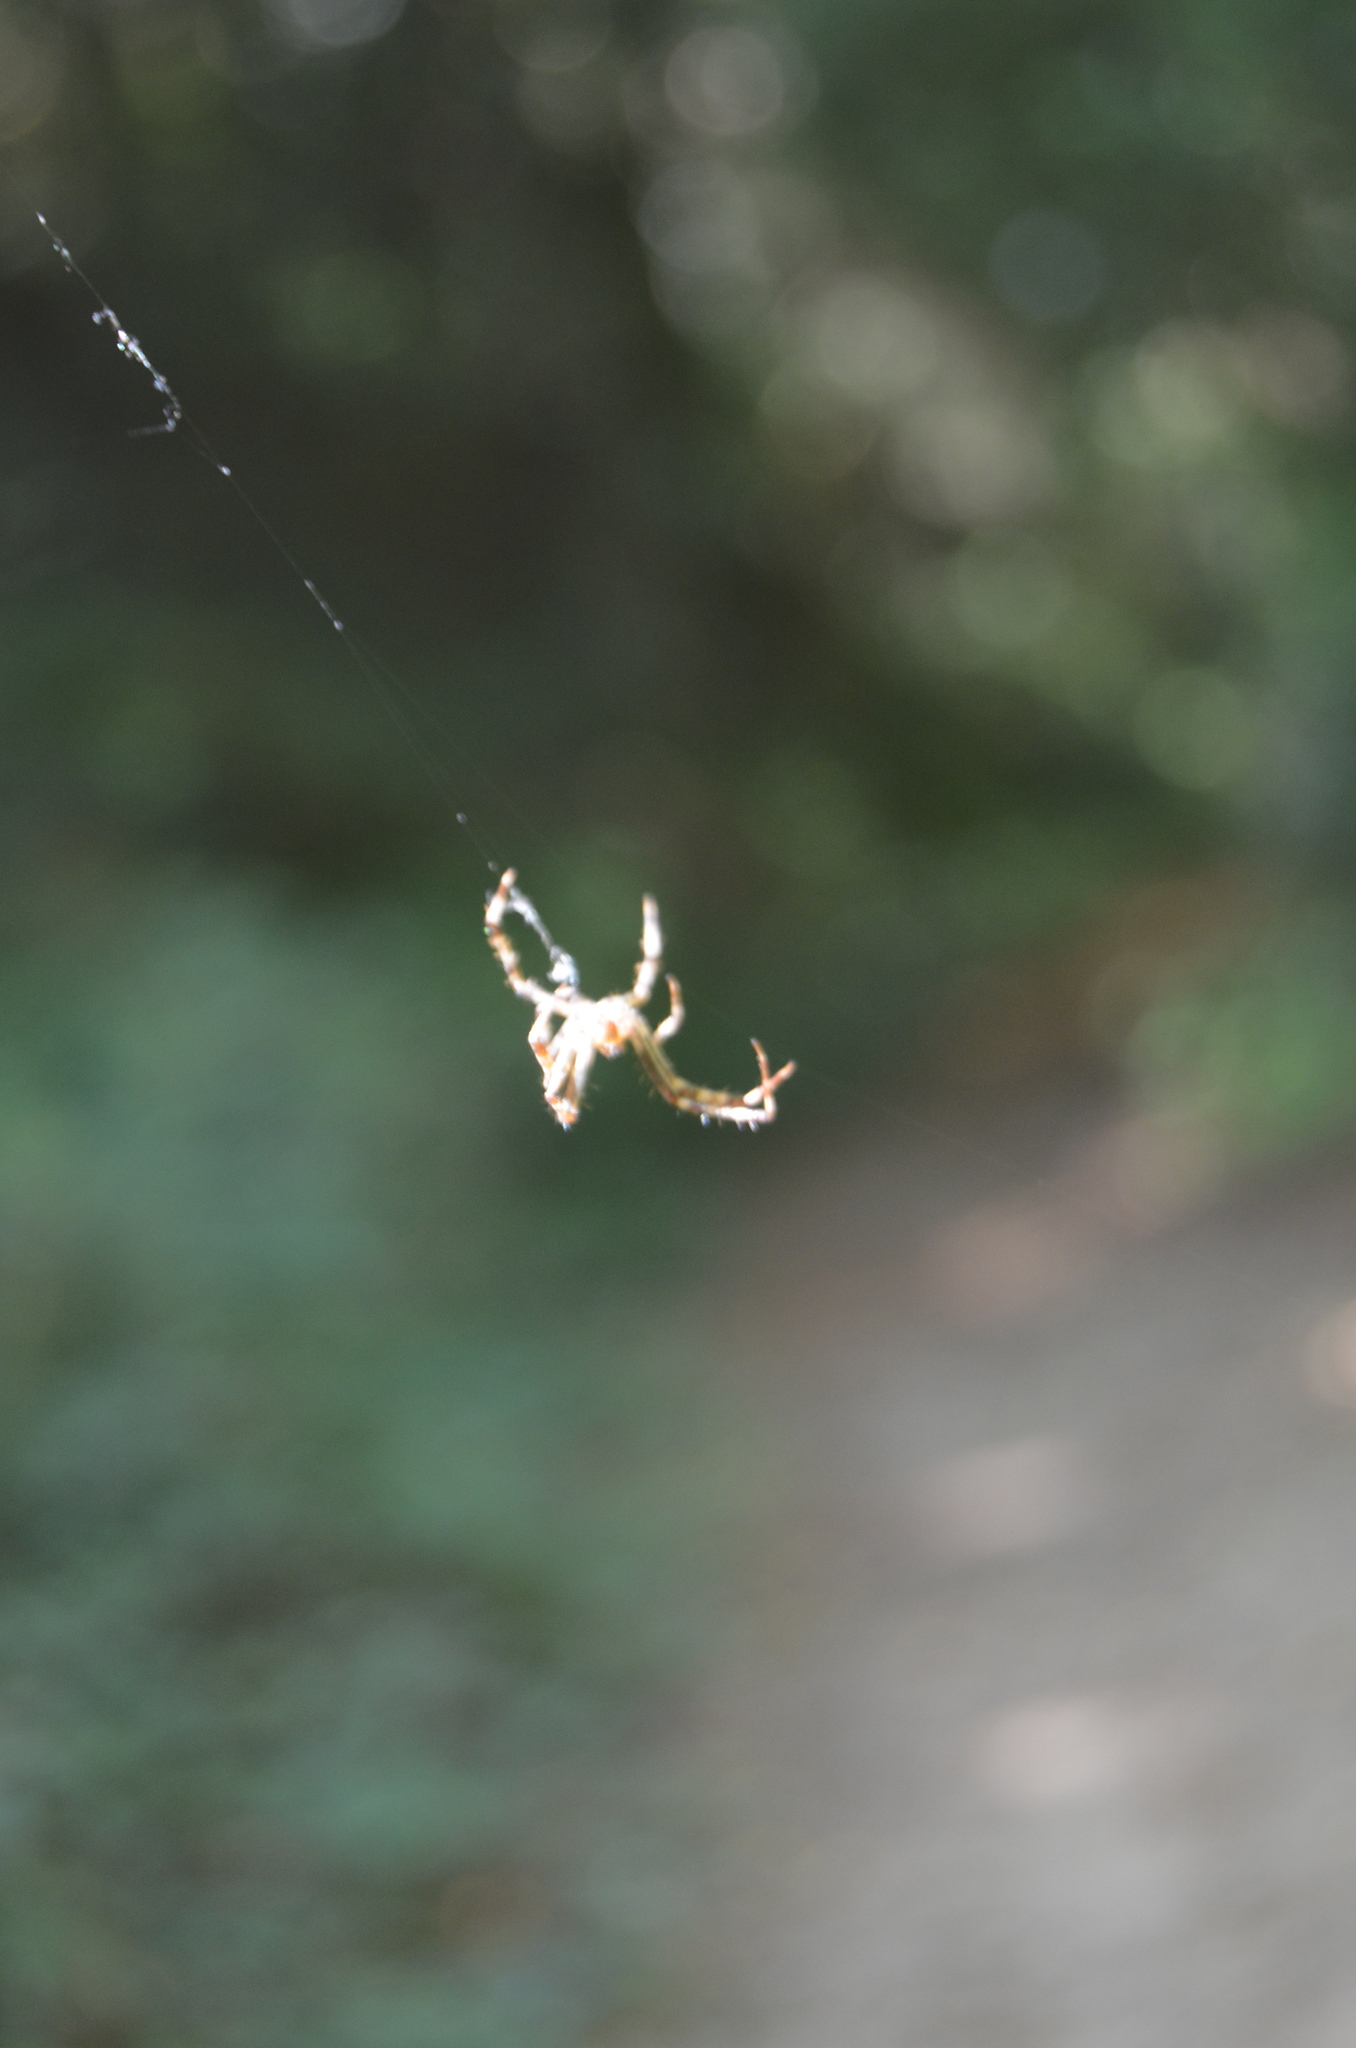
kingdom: Animalia
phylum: Arthropoda
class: Arachnida
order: Araneae
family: Araneidae
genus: Araneus
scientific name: Araneus diadematus
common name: Cross orbweaver
